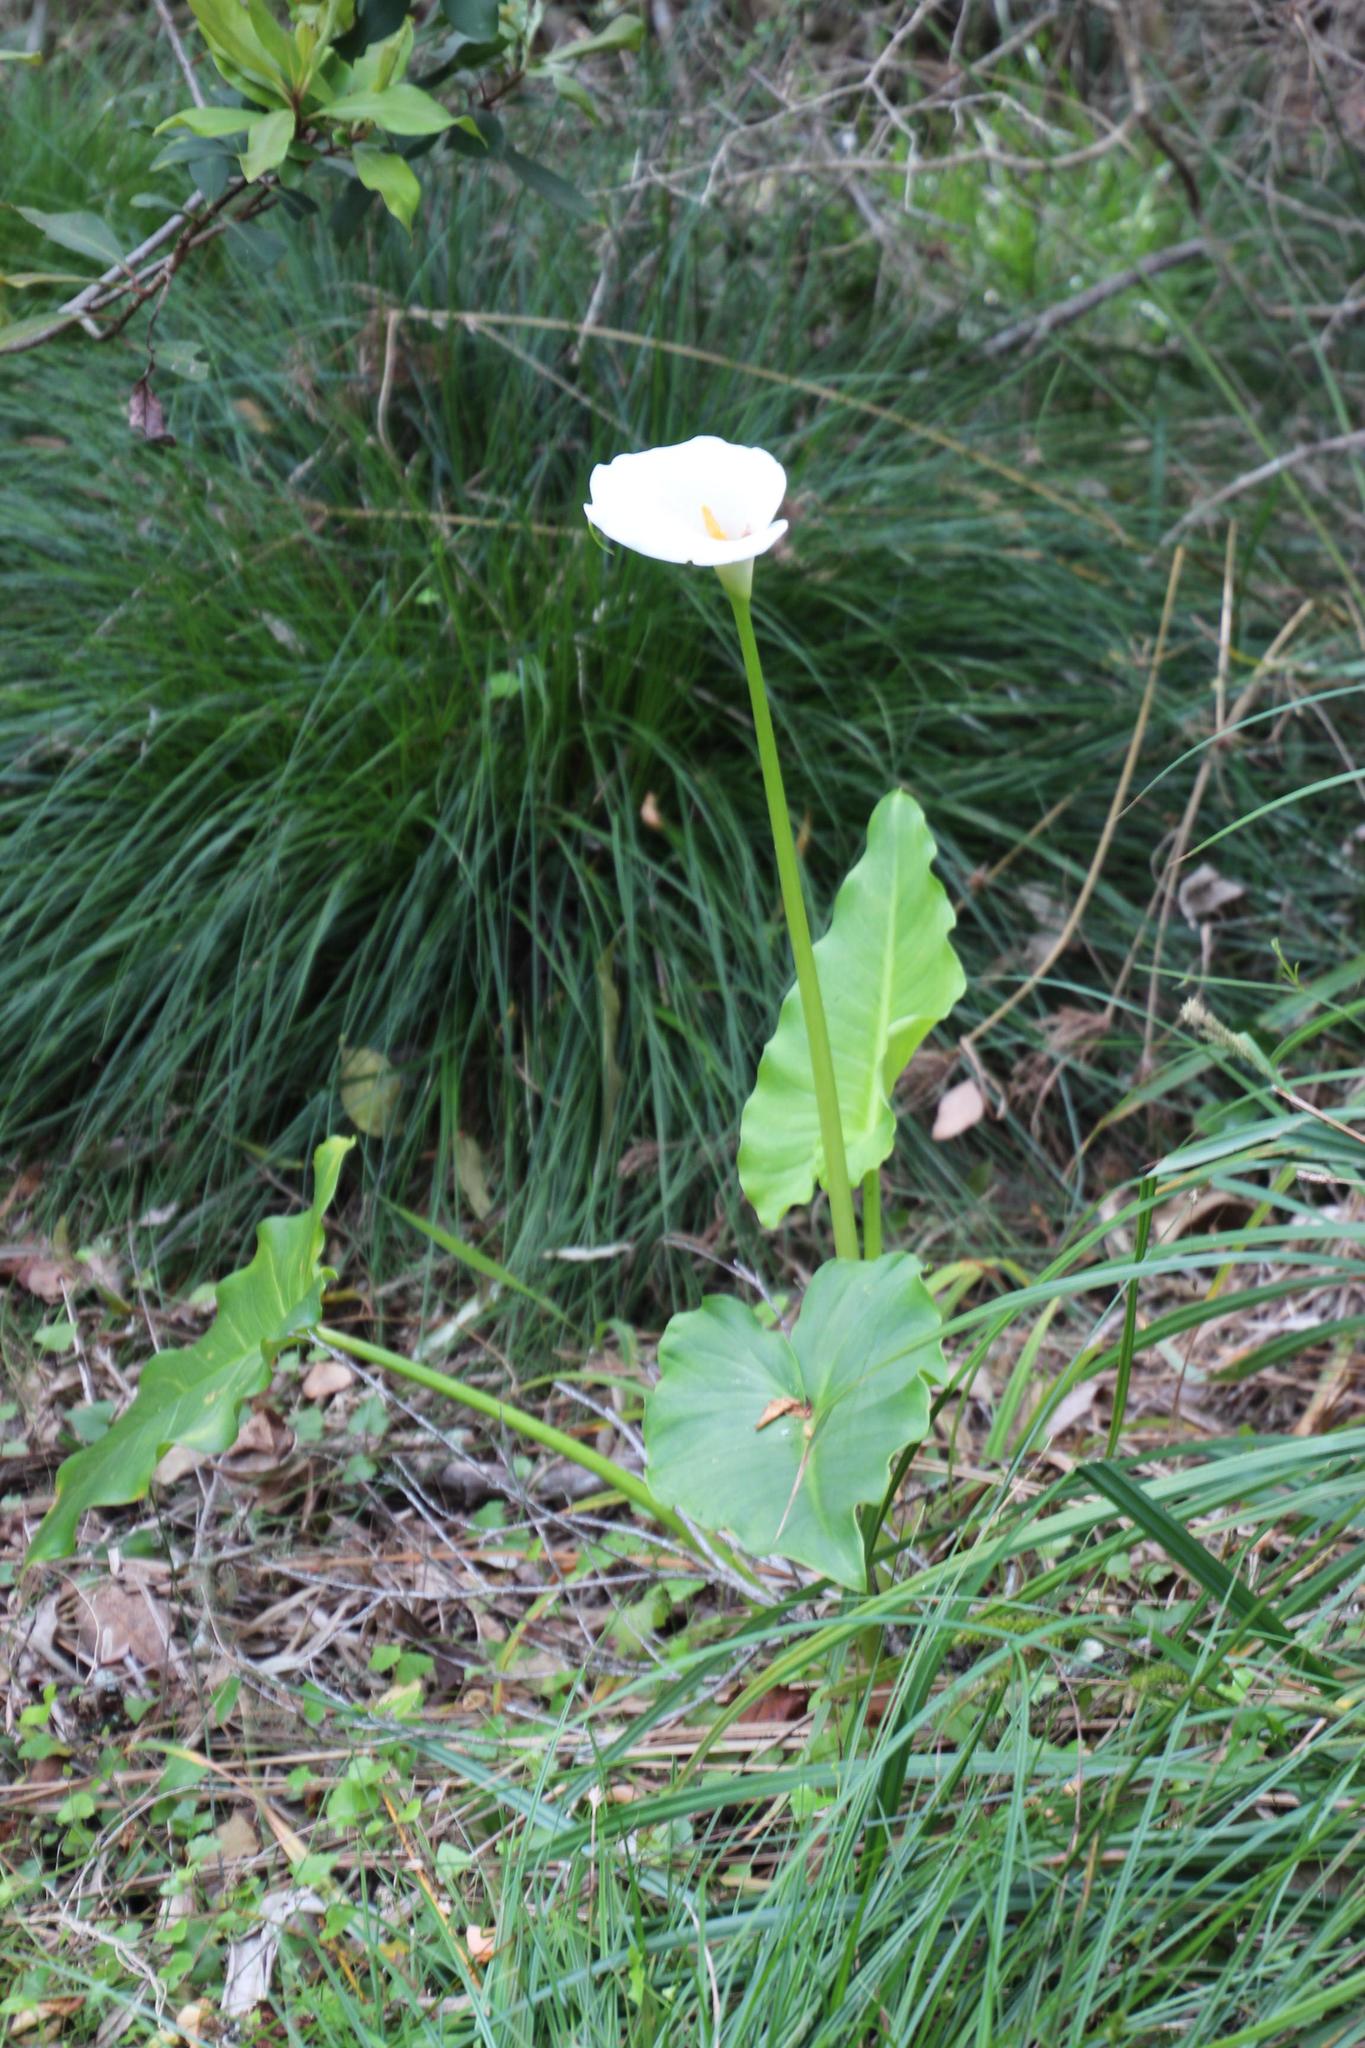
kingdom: Plantae
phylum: Tracheophyta
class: Liliopsida
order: Alismatales
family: Araceae
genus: Zantedeschia
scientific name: Zantedeschia aethiopica
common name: Altar-lily
